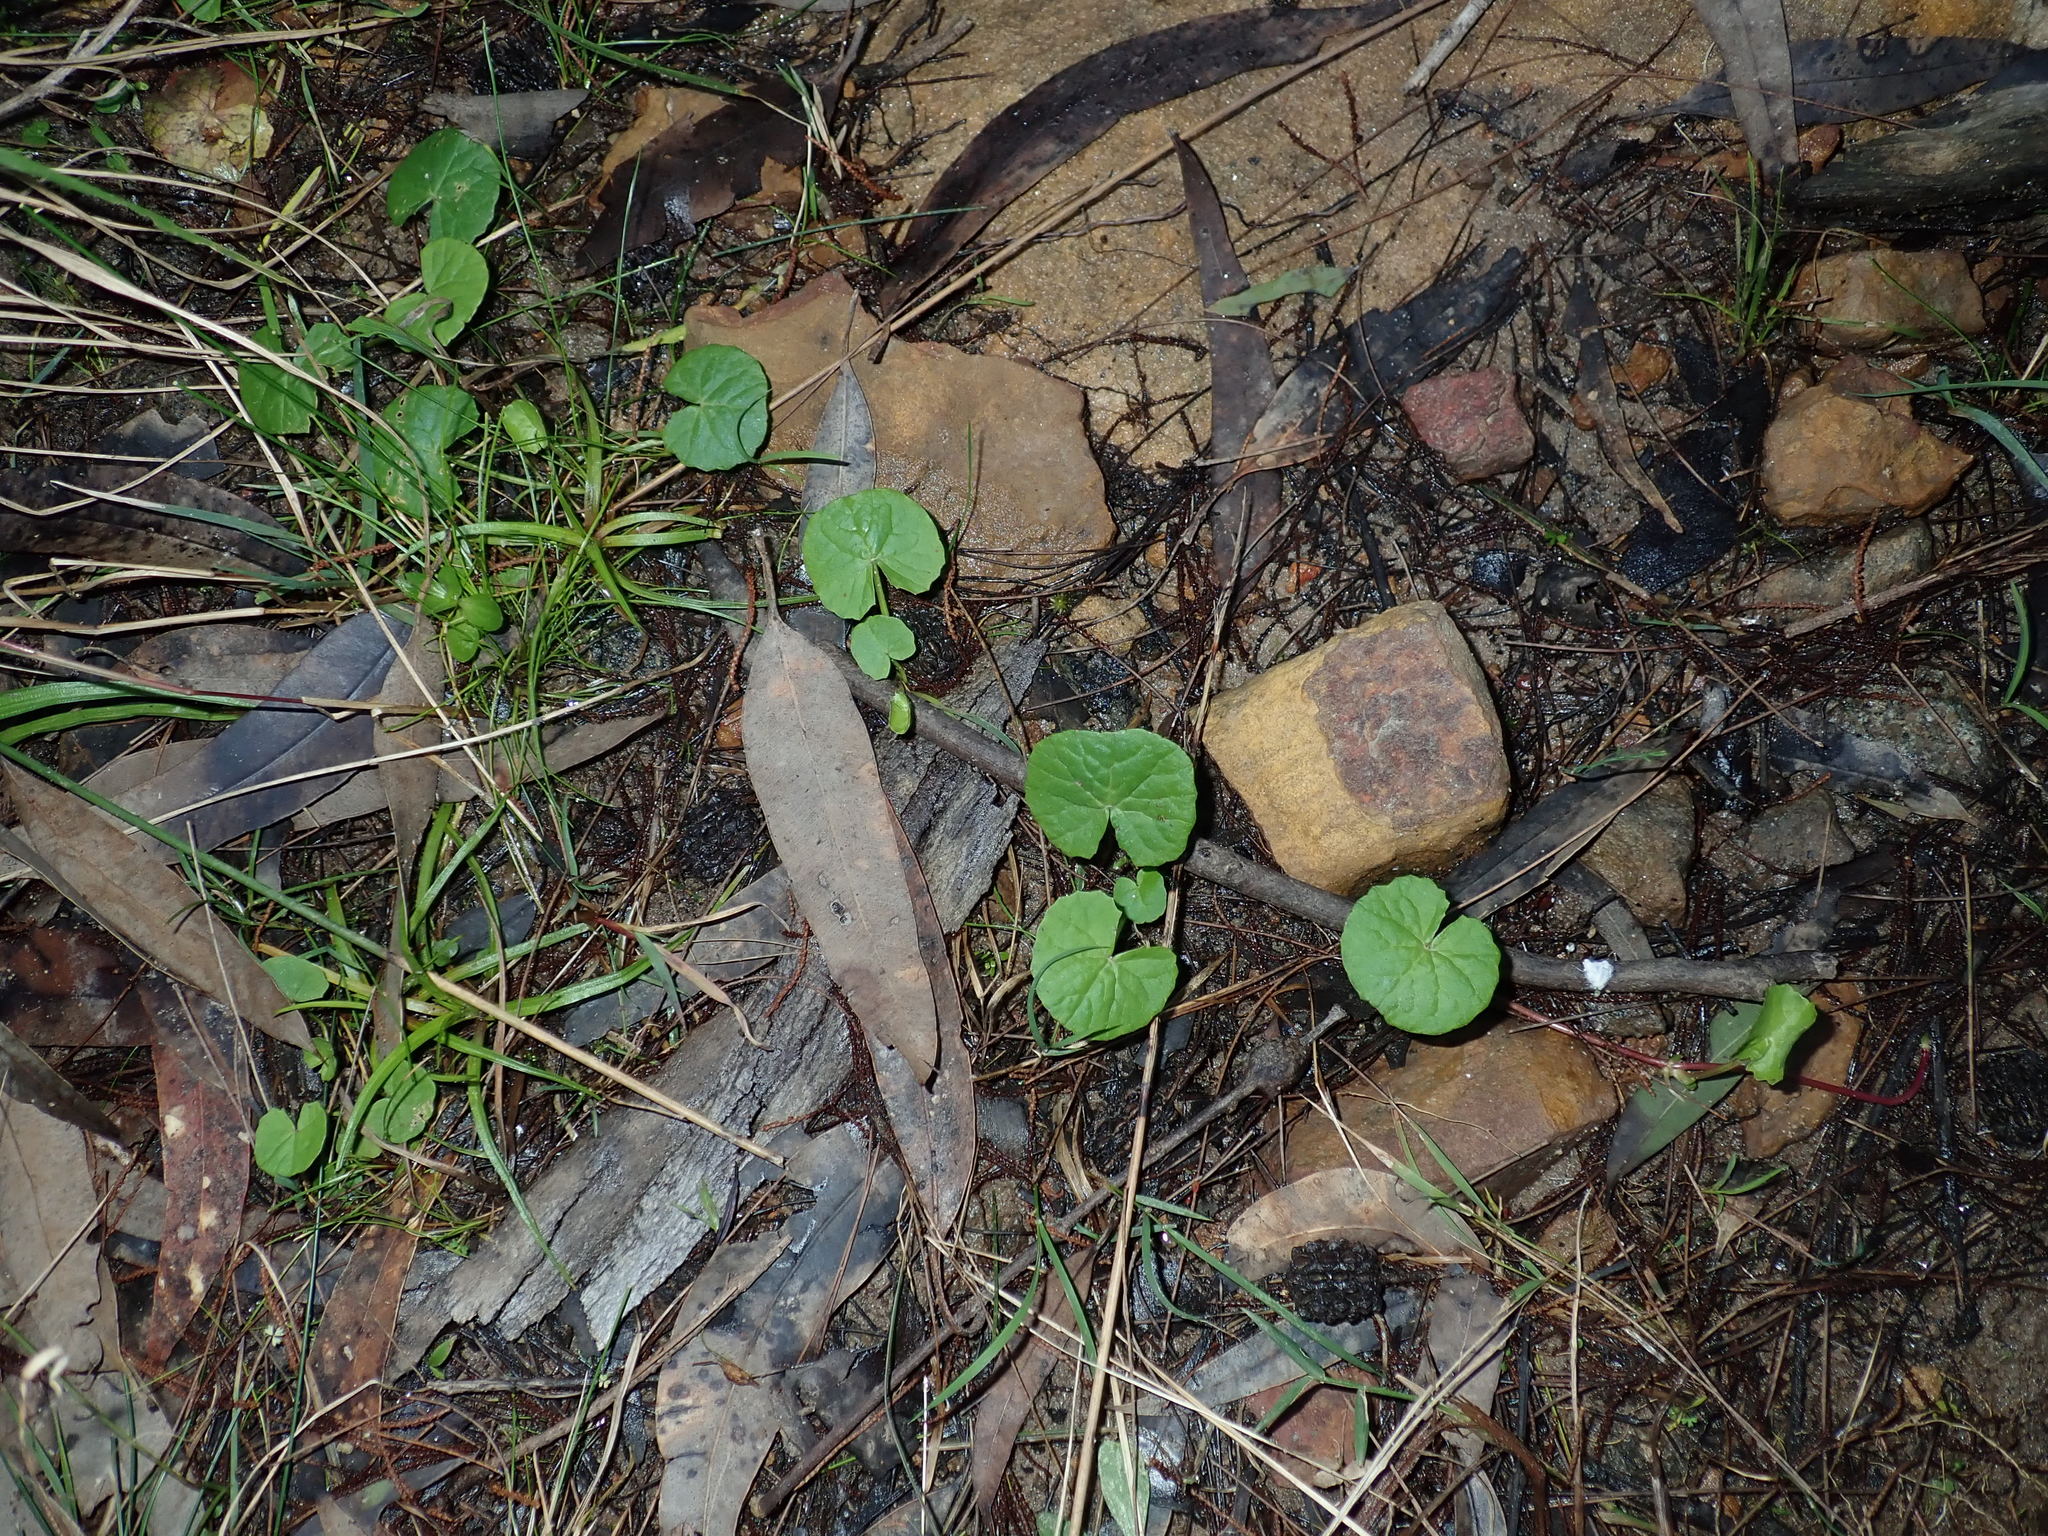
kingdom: Plantae
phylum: Tracheophyta
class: Magnoliopsida
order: Apiales
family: Apiaceae
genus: Centella
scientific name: Centella asiatica
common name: Spadeleaf
